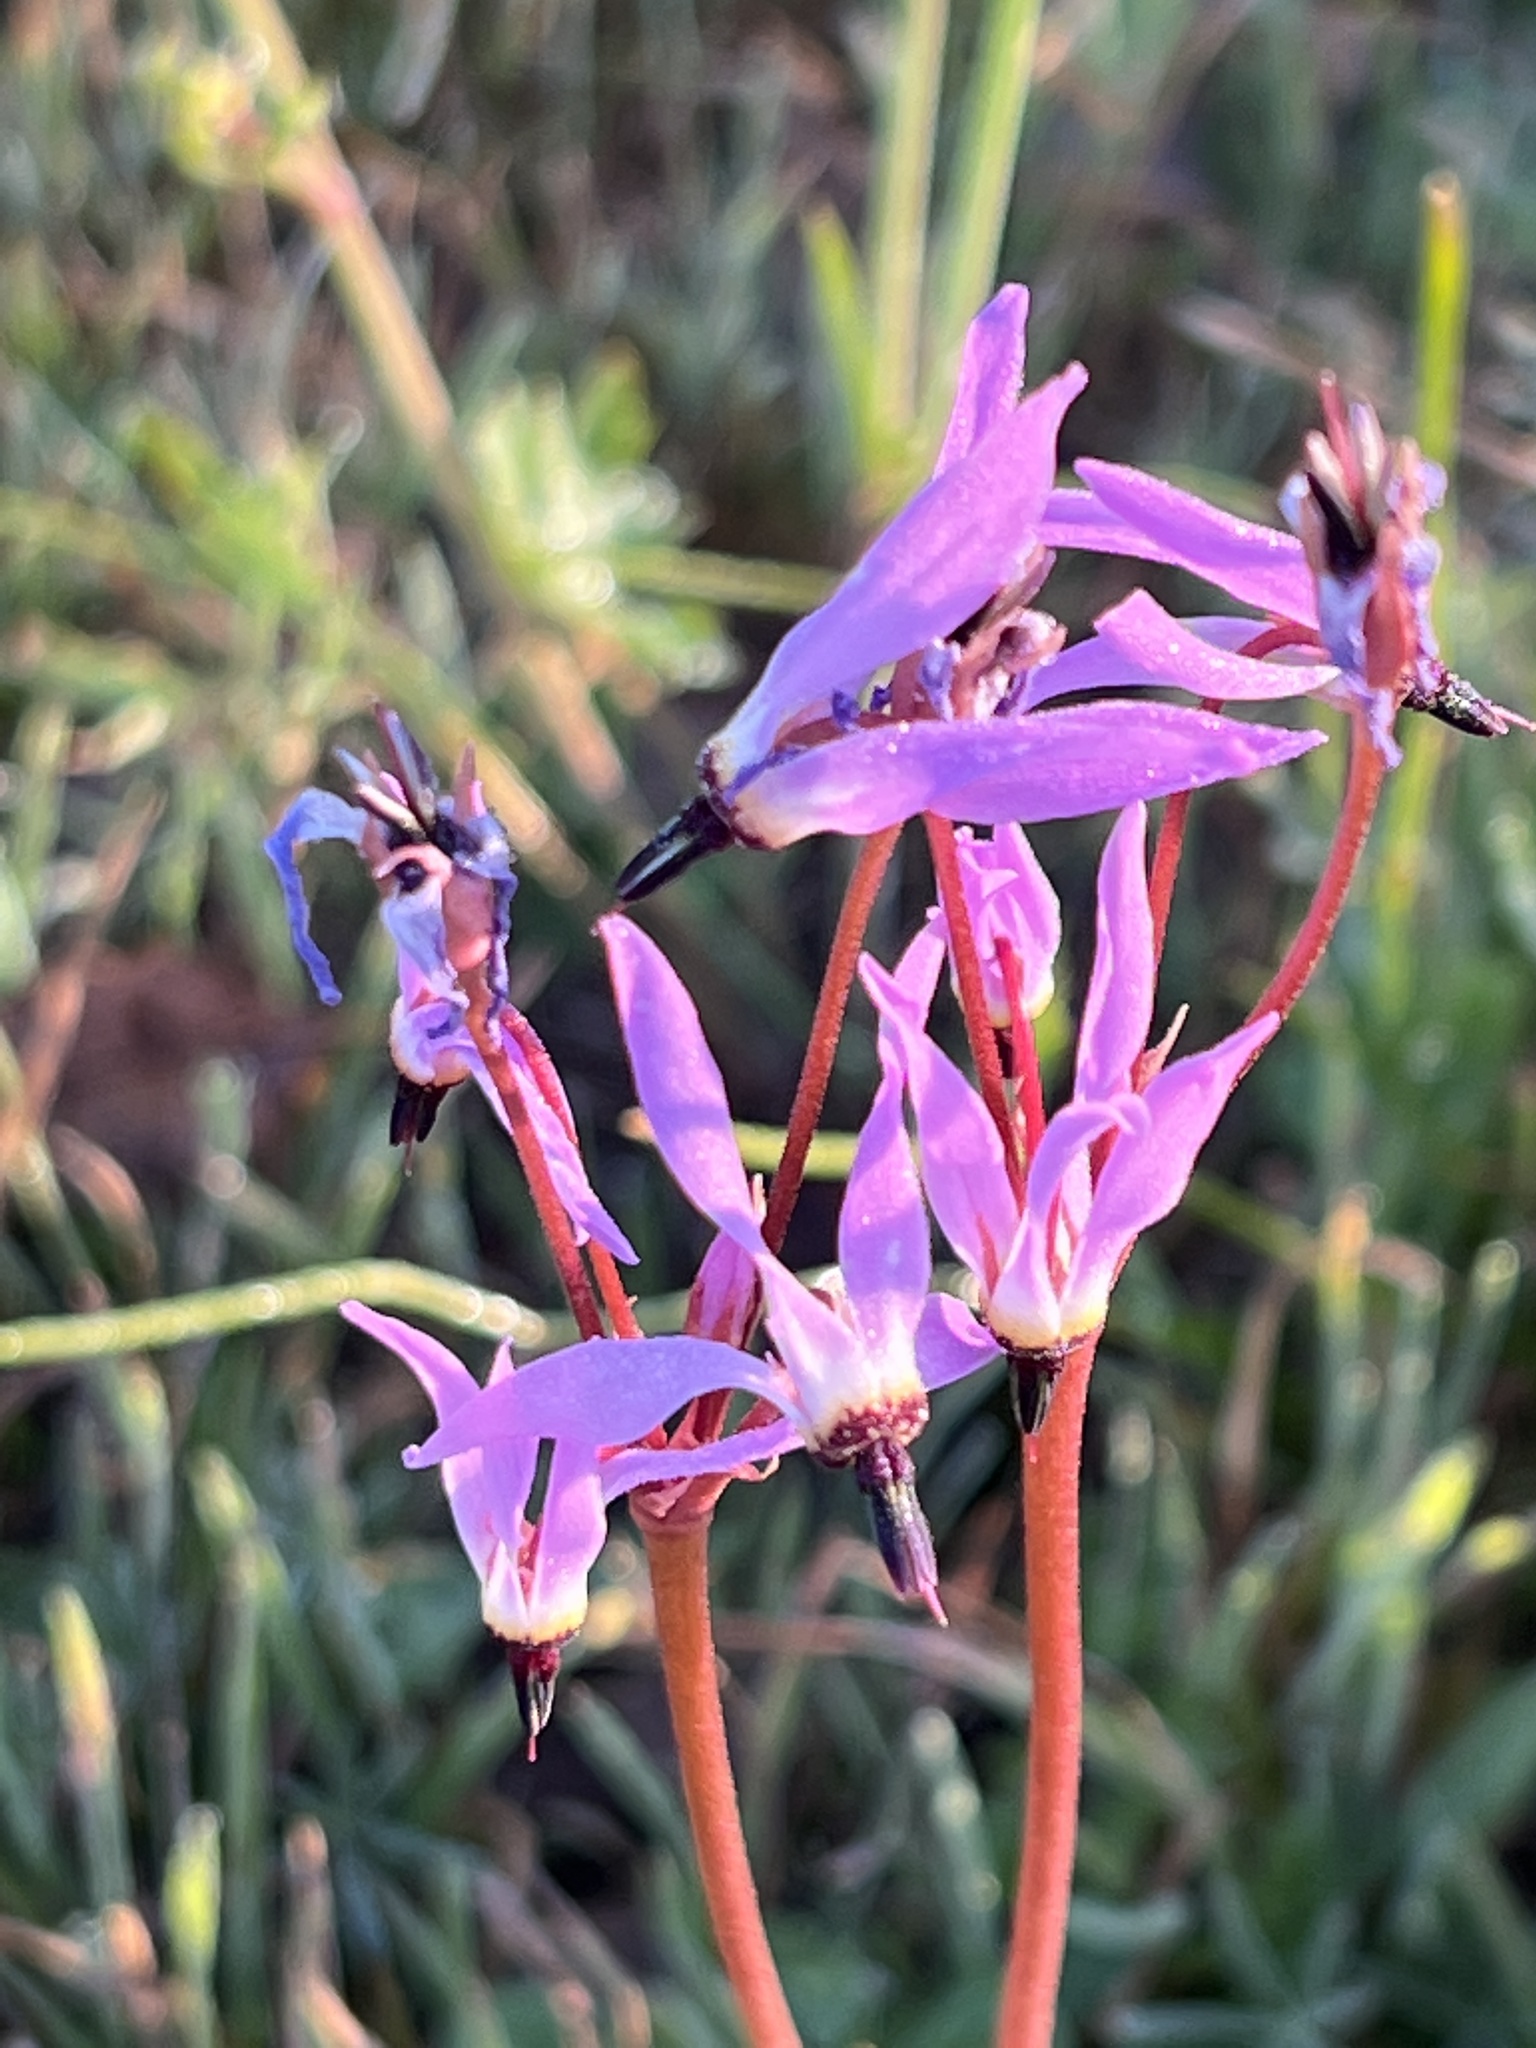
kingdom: Plantae
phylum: Tracheophyta
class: Magnoliopsida
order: Ericales
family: Primulaceae
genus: Dodecatheon
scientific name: Dodecatheon hendersonii
